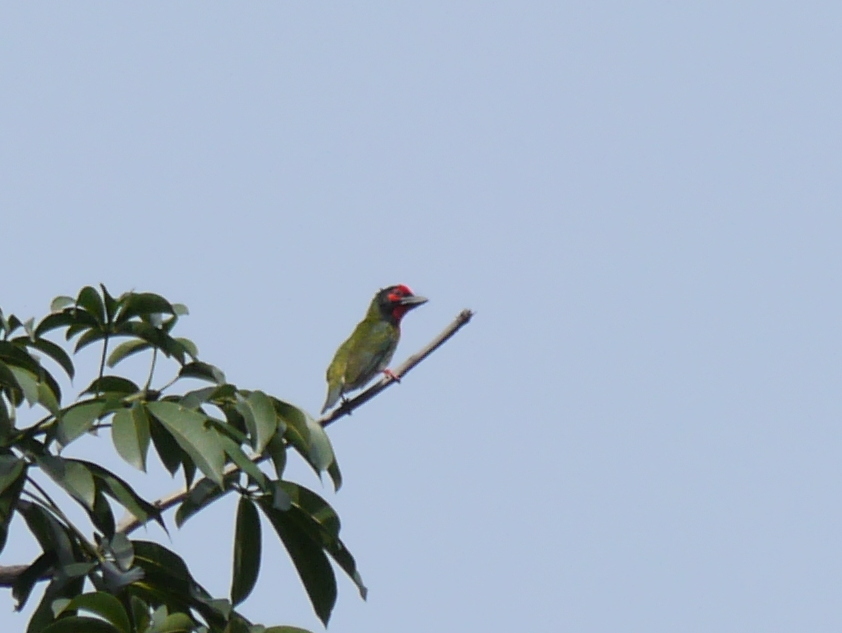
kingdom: Animalia
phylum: Chordata
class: Aves
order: Piciformes
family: Megalaimidae
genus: Psilopogon
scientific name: Psilopogon haemacephalus
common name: Coppersmith barbet
